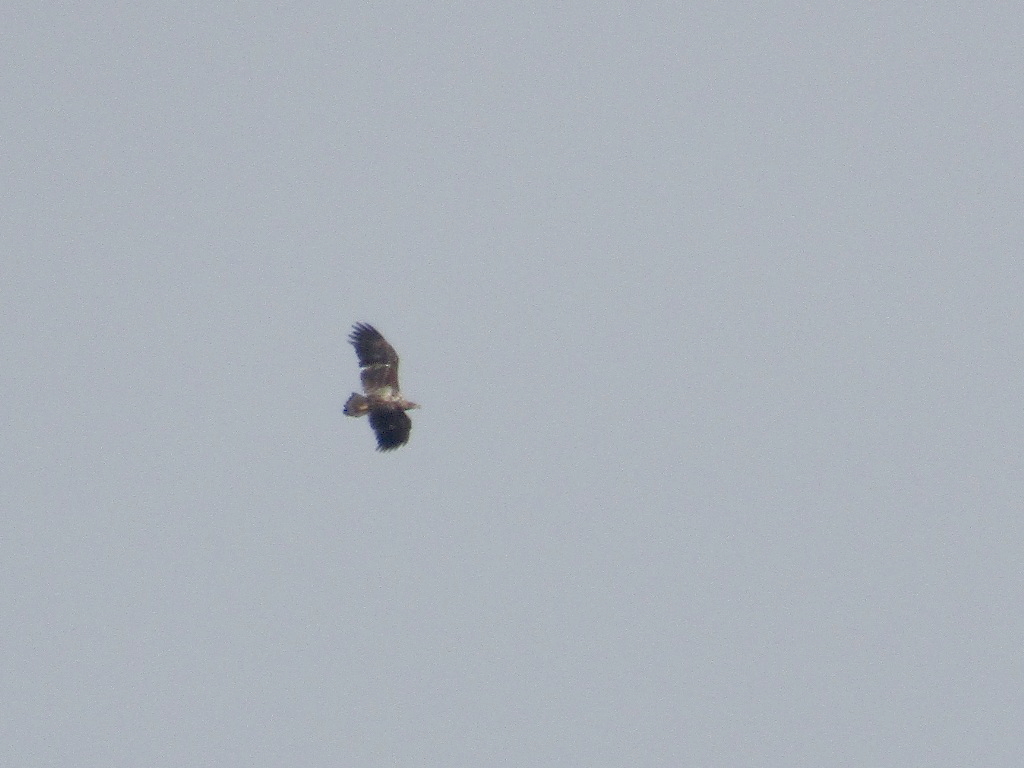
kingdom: Animalia
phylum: Chordata
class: Aves
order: Accipitriformes
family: Accipitridae
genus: Haliaeetus
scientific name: Haliaeetus albicilla
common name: White-tailed eagle
